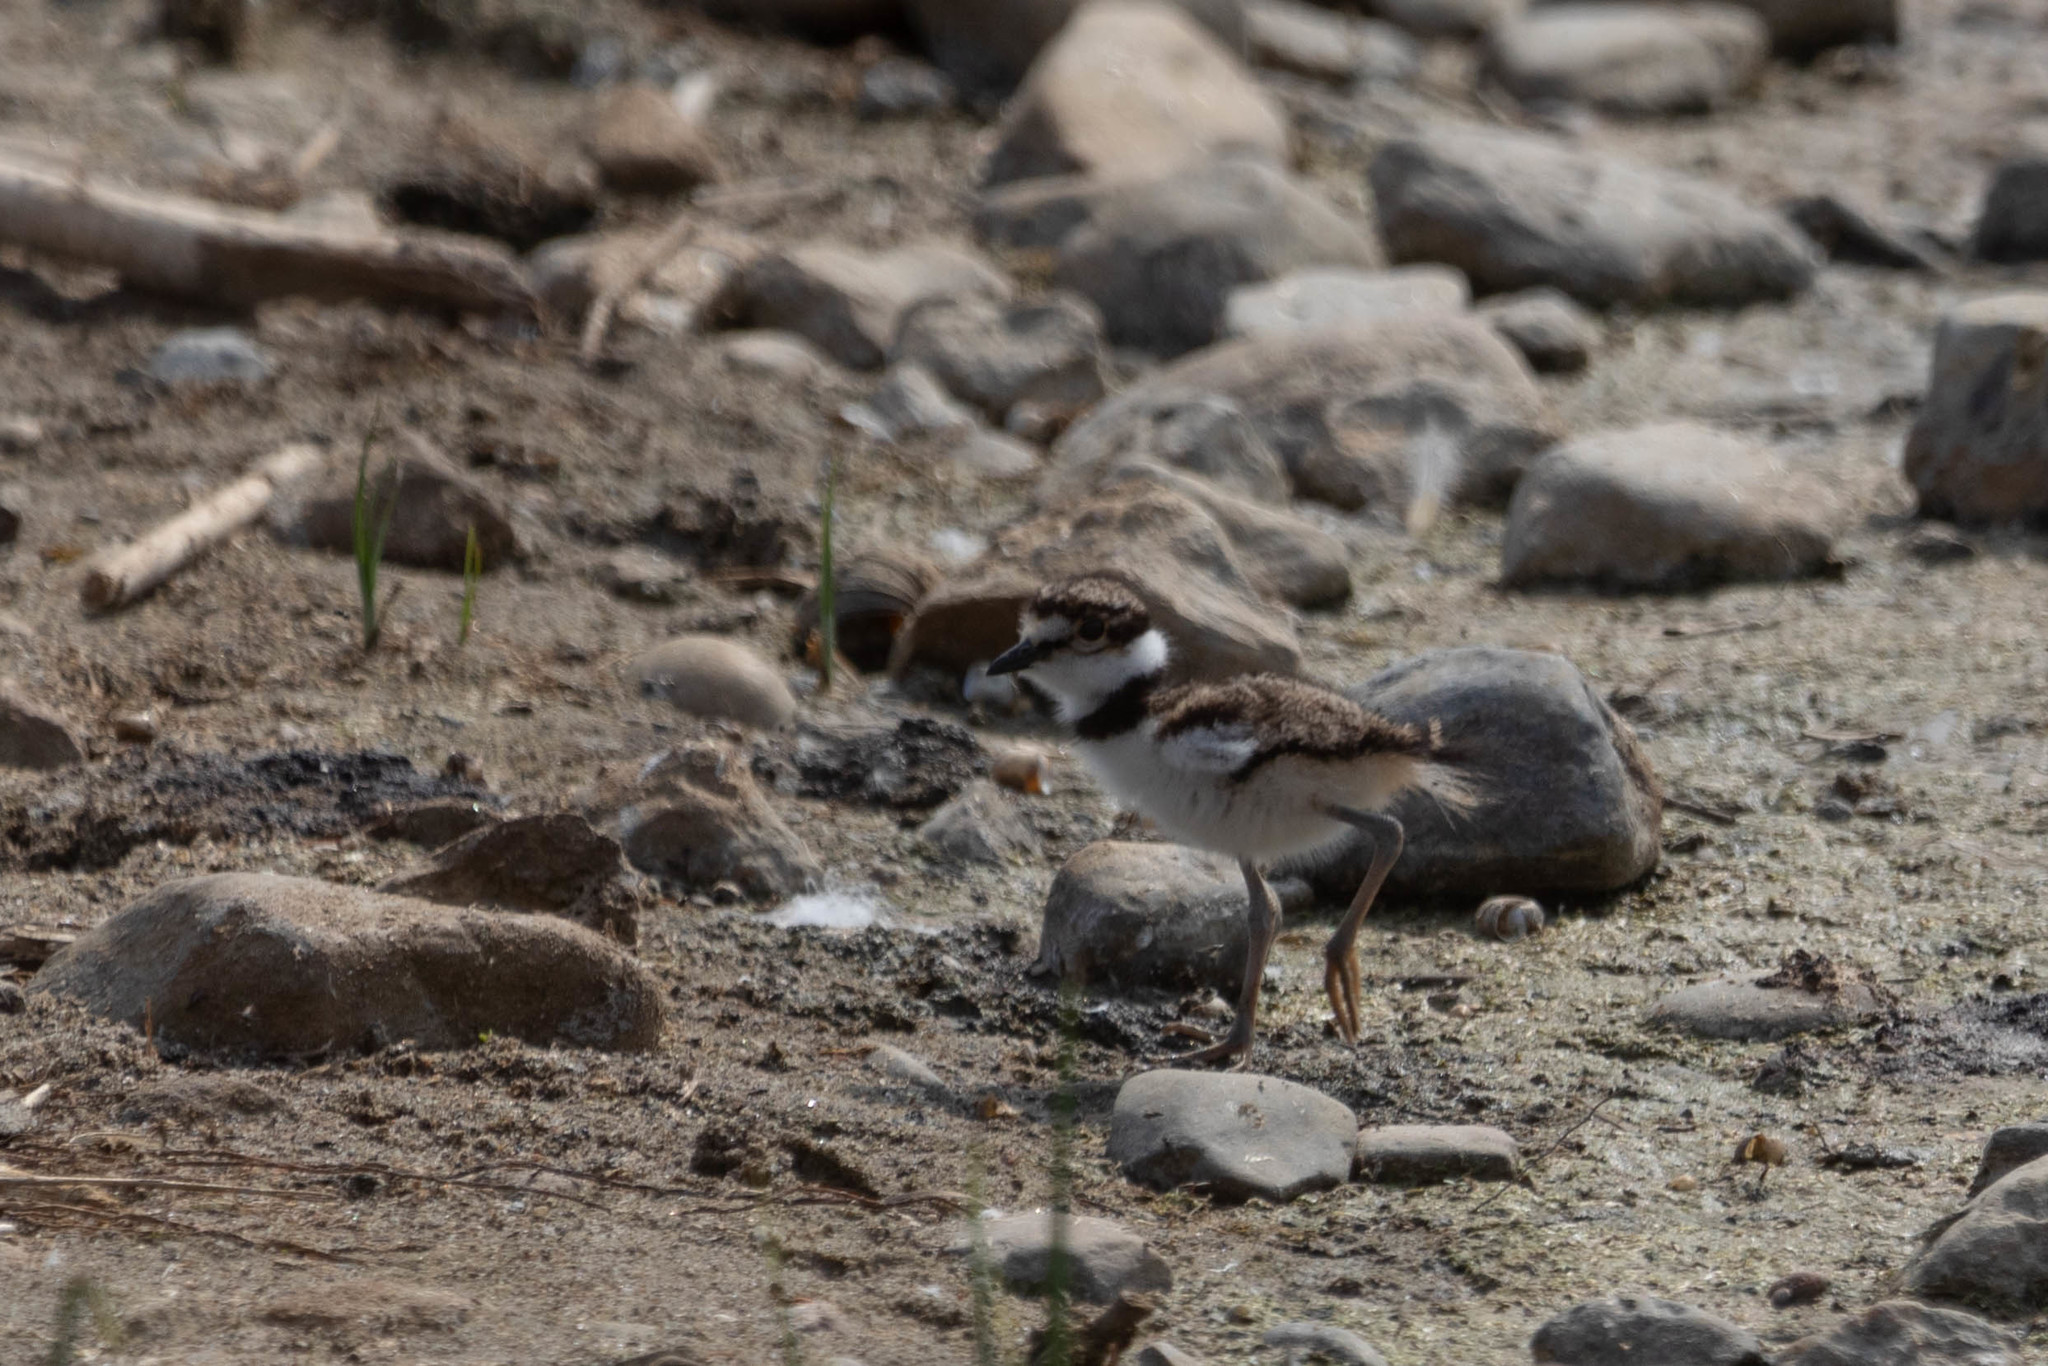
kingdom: Animalia
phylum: Chordata
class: Aves
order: Charadriiformes
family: Charadriidae
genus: Charadrius
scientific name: Charadrius vociferus
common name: Killdeer
